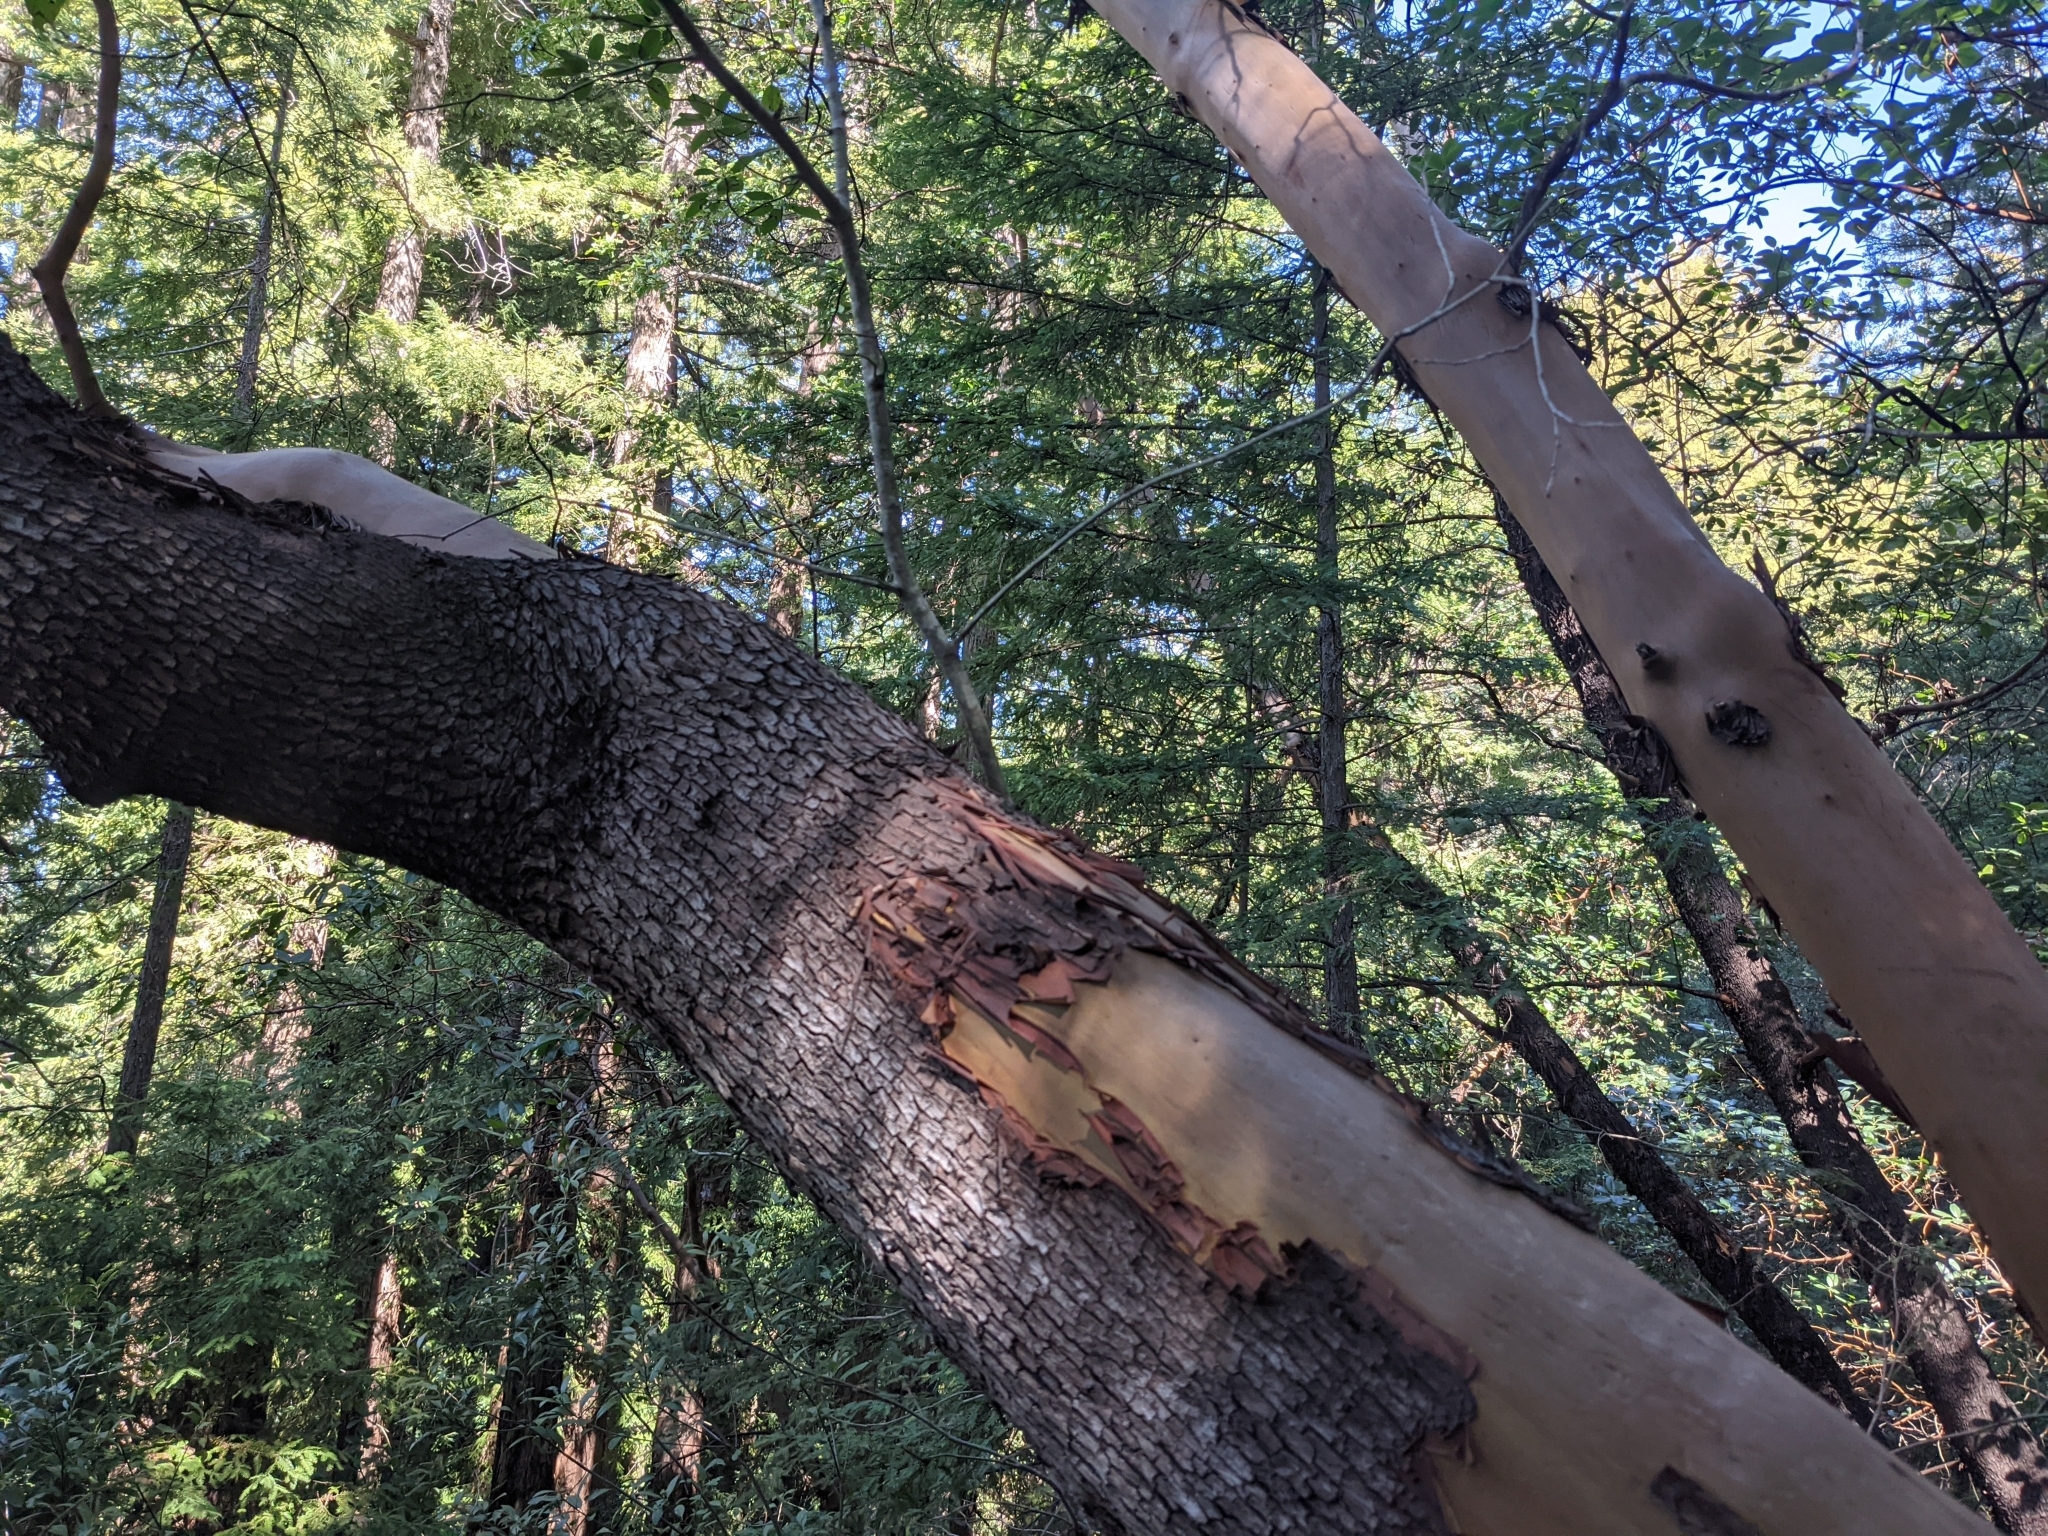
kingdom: Plantae
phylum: Tracheophyta
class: Magnoliopsida
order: Ericales
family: Ericaceae
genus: Arbutus
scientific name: Arbutus menziesii
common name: Pacific madrone
